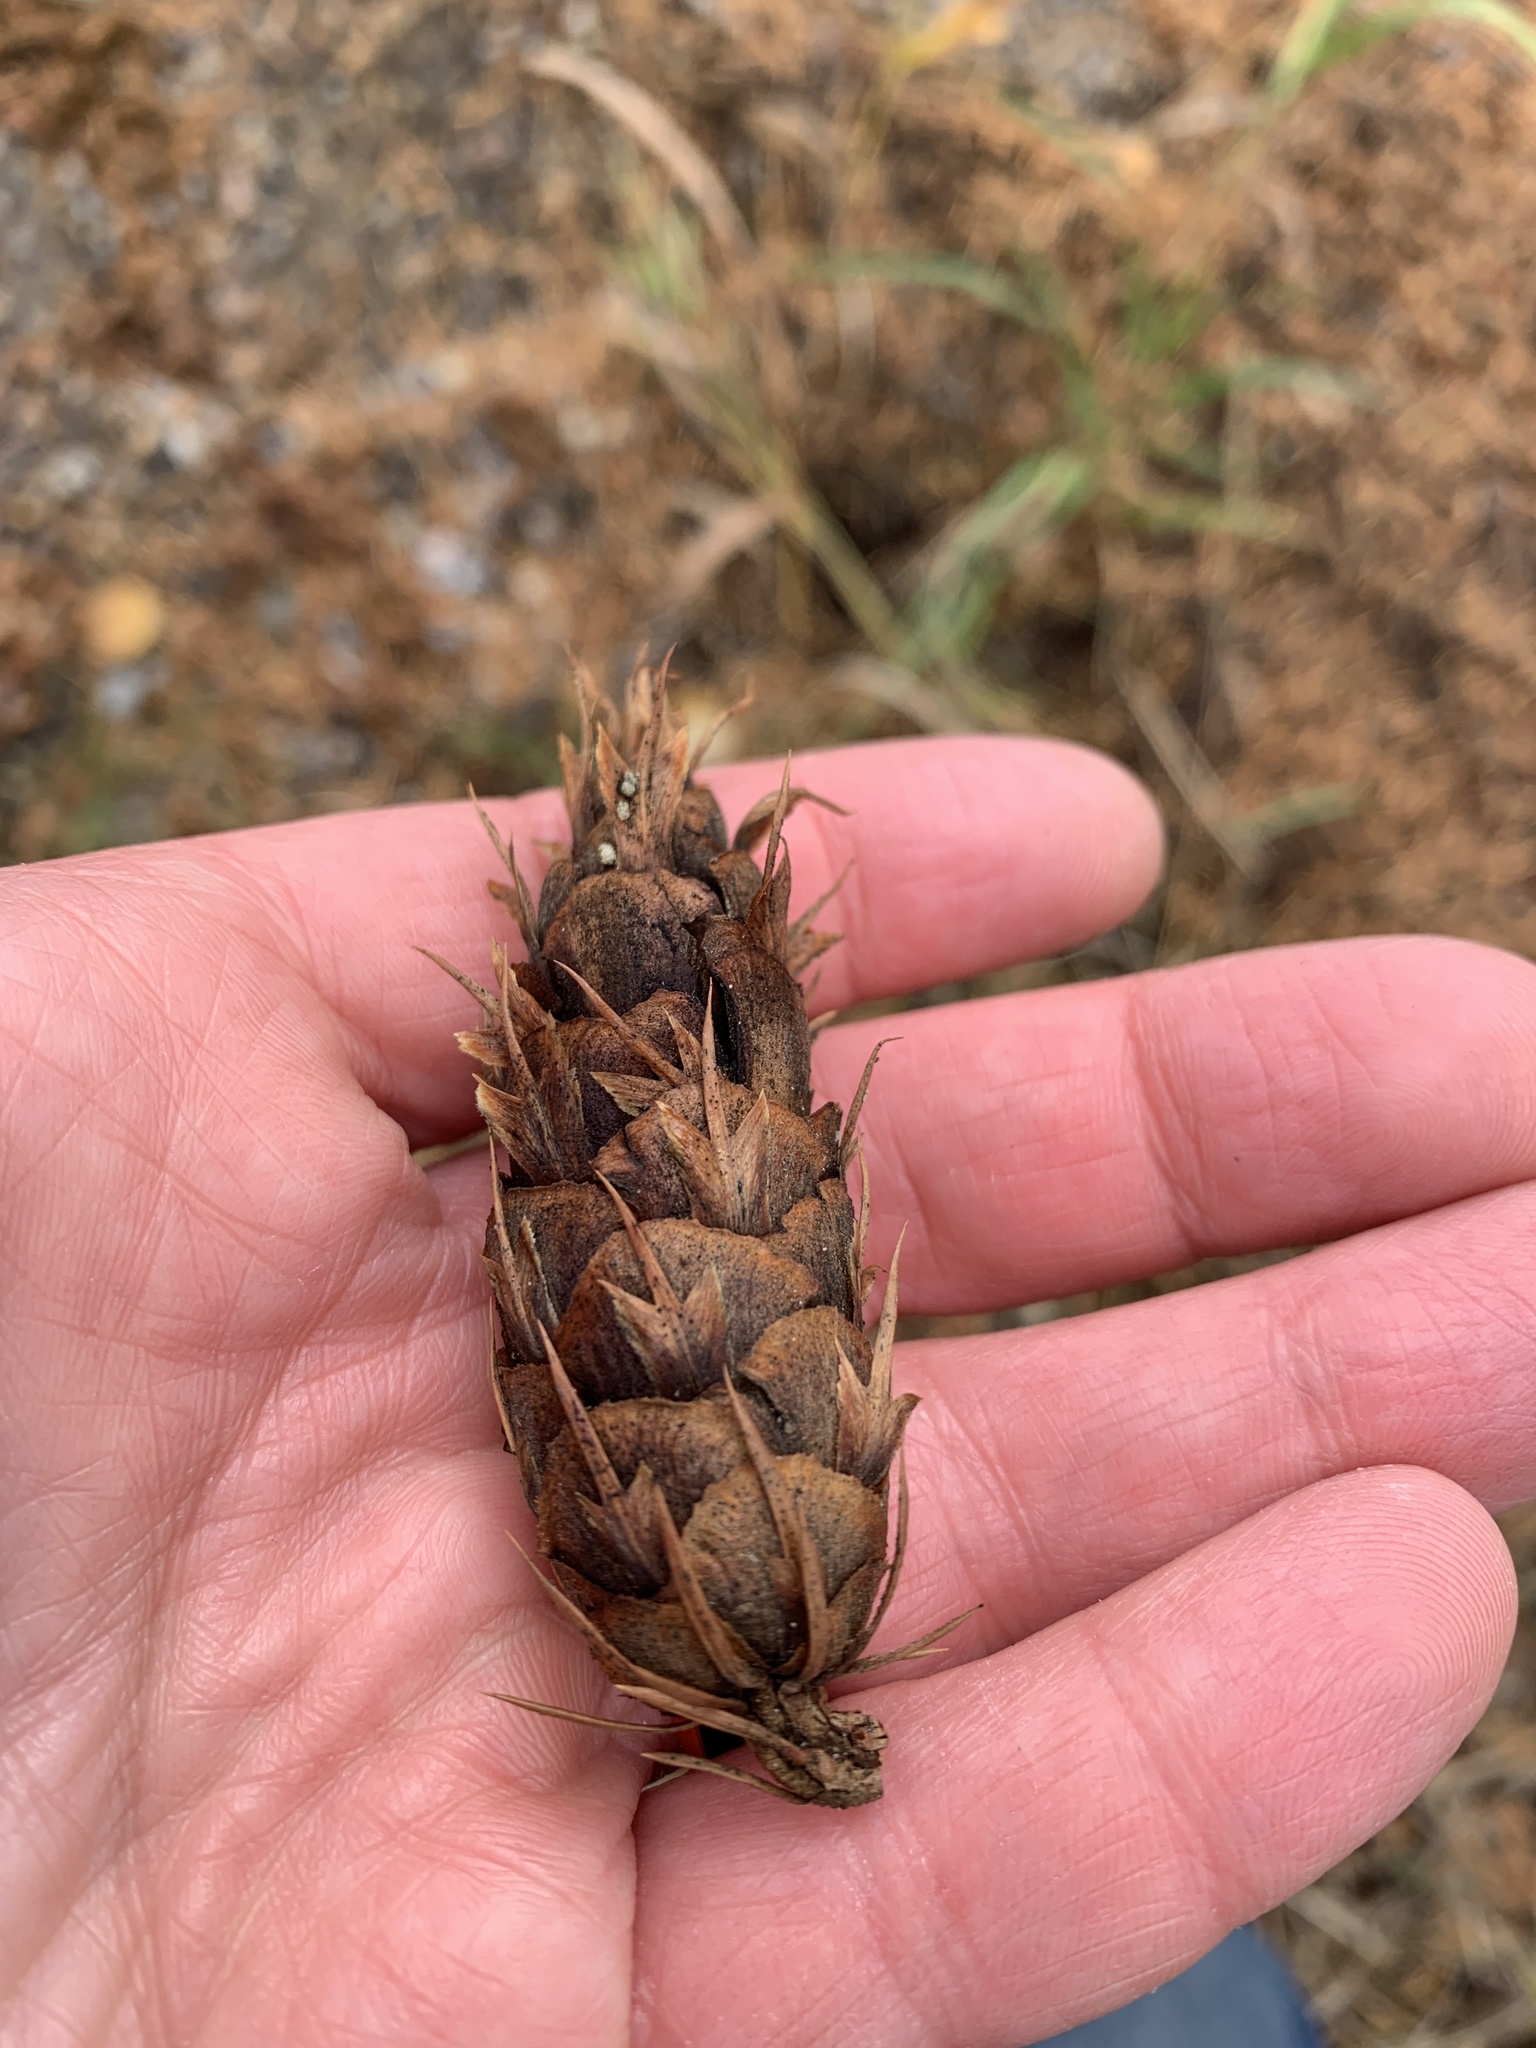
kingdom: Plantae
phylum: Tracheophyta
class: Pinopsida
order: Pinales
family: Pinaceae
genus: Pseudotsuga
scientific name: Pseudotsuga menziesii
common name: Douglas fir
